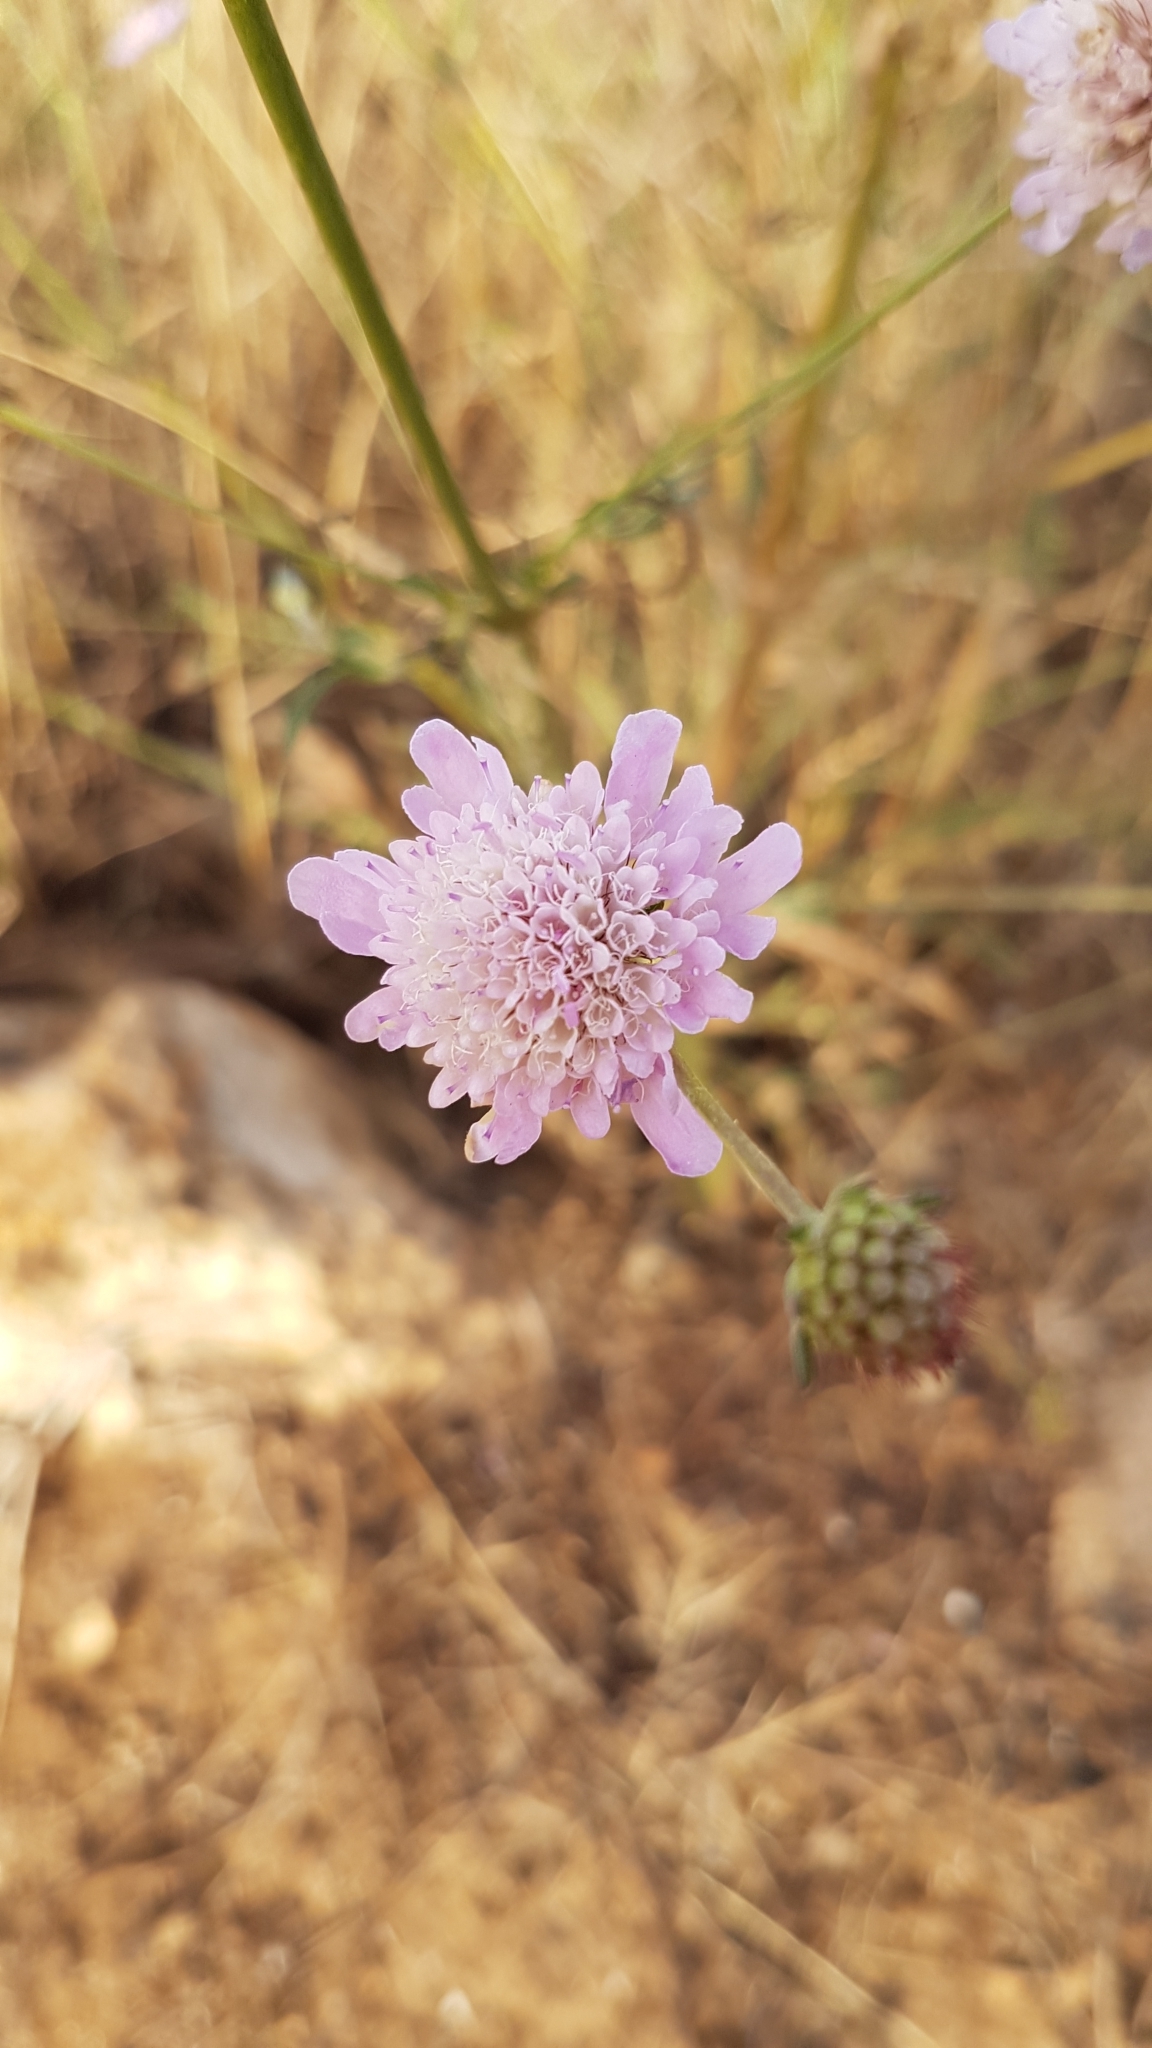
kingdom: Plantae
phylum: Tracheophyta
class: Magnoliopsida
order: Dipsacales
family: Caprifoliaceae
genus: Sixalix
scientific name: Sixalix atropurpurea
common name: Sweet scabious
